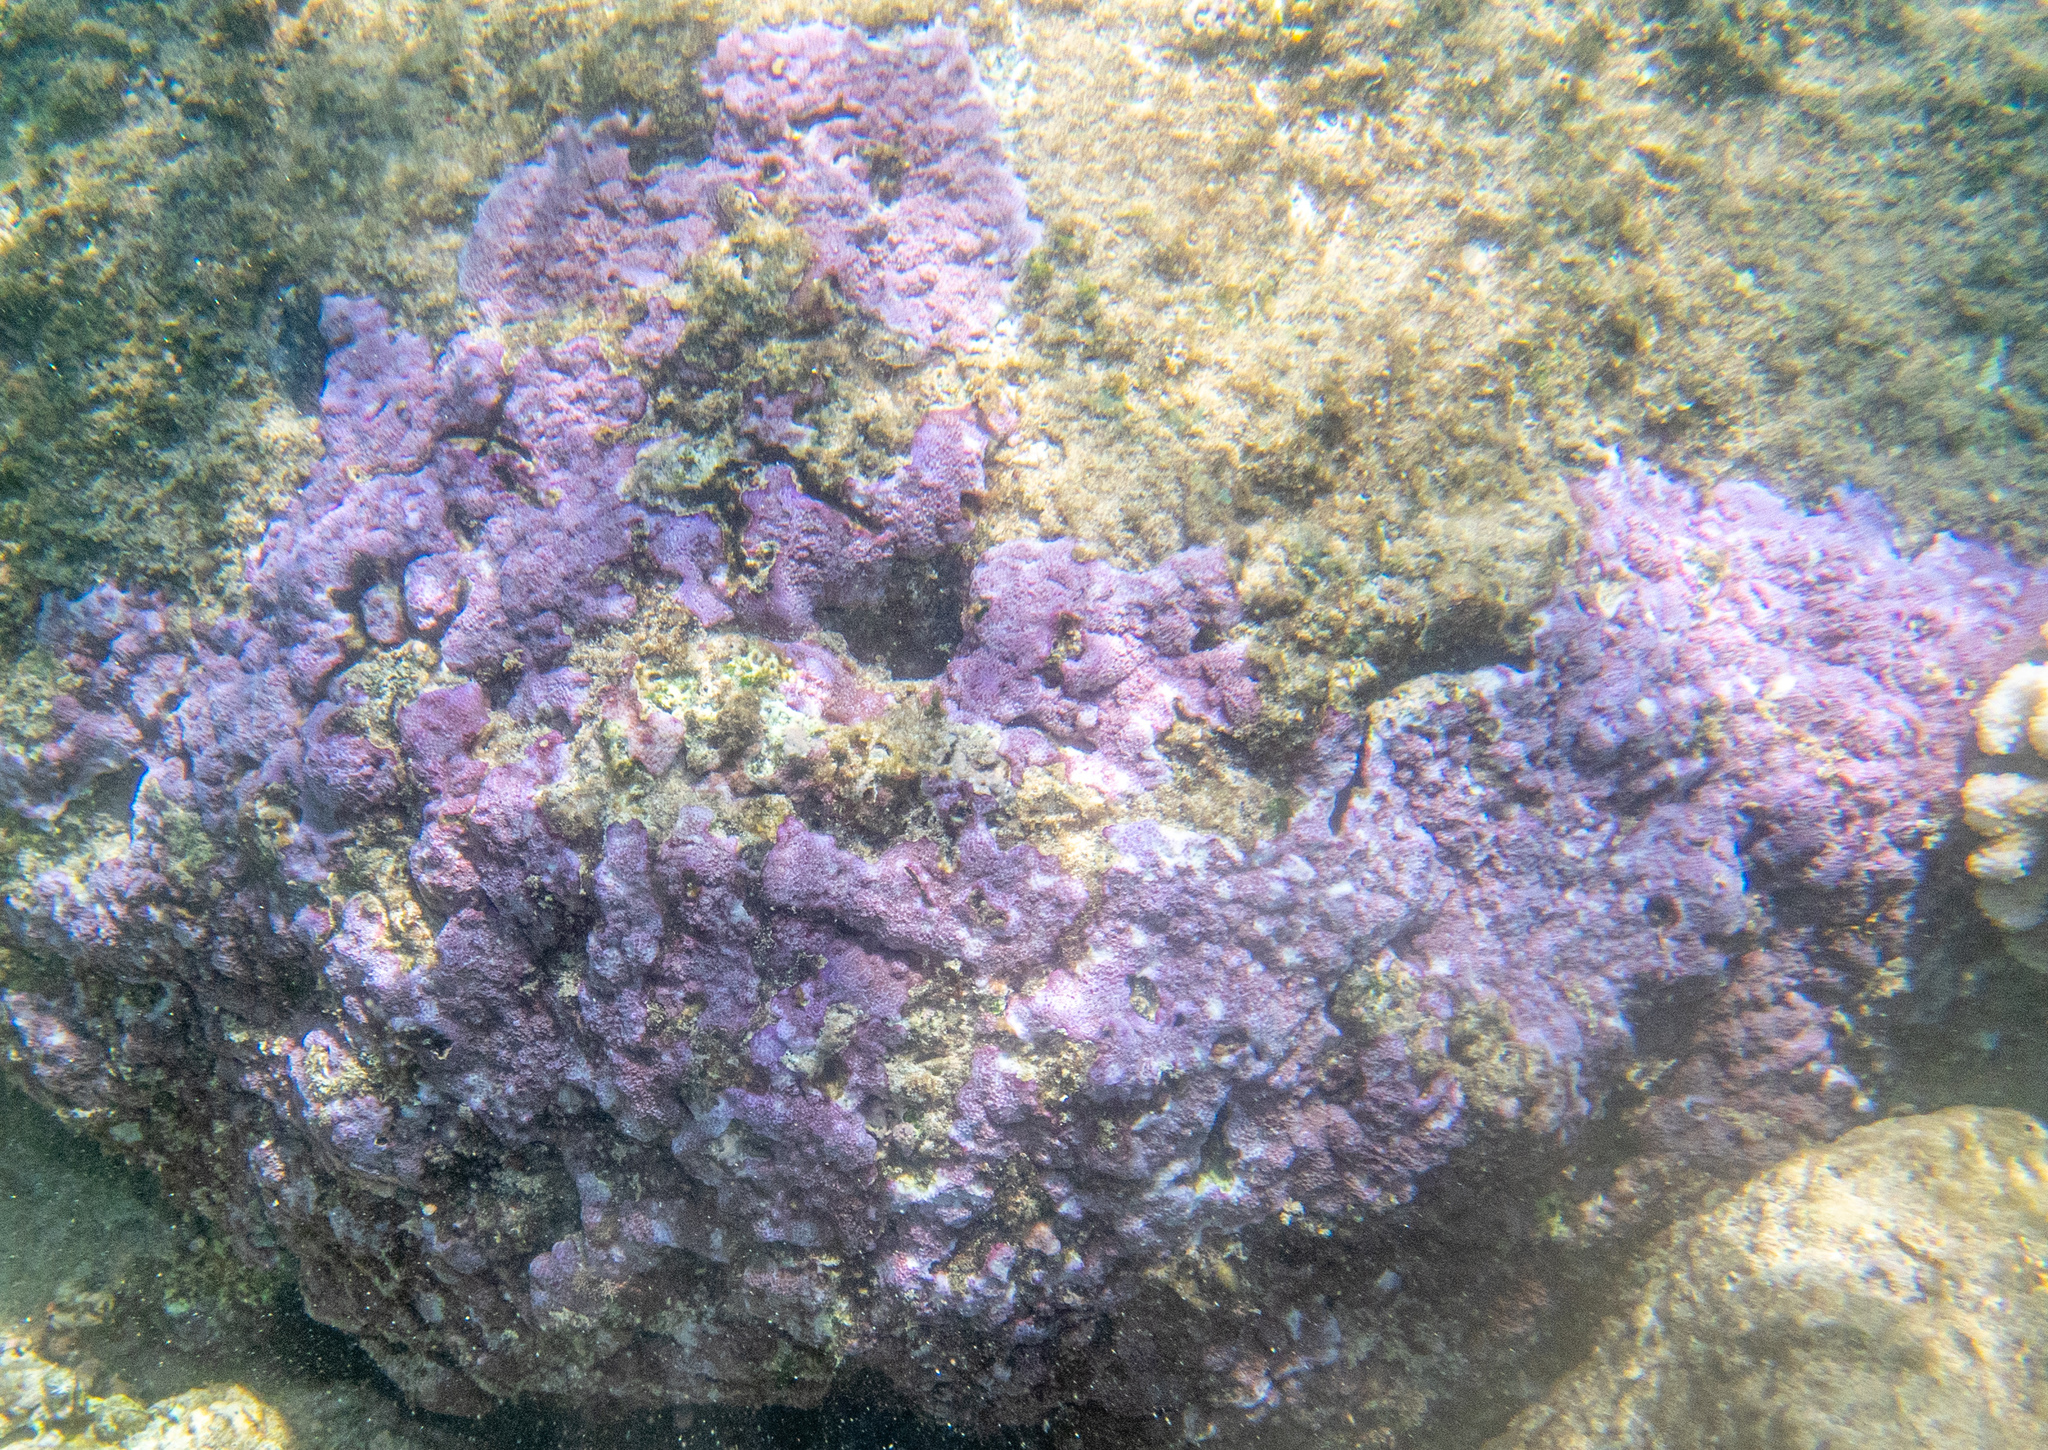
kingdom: Animalia
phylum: Cnidaria
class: Anthozoa
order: Scleractinia
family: Acroporidae
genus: Montipora
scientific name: Montipora flabellata
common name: Pore coral
